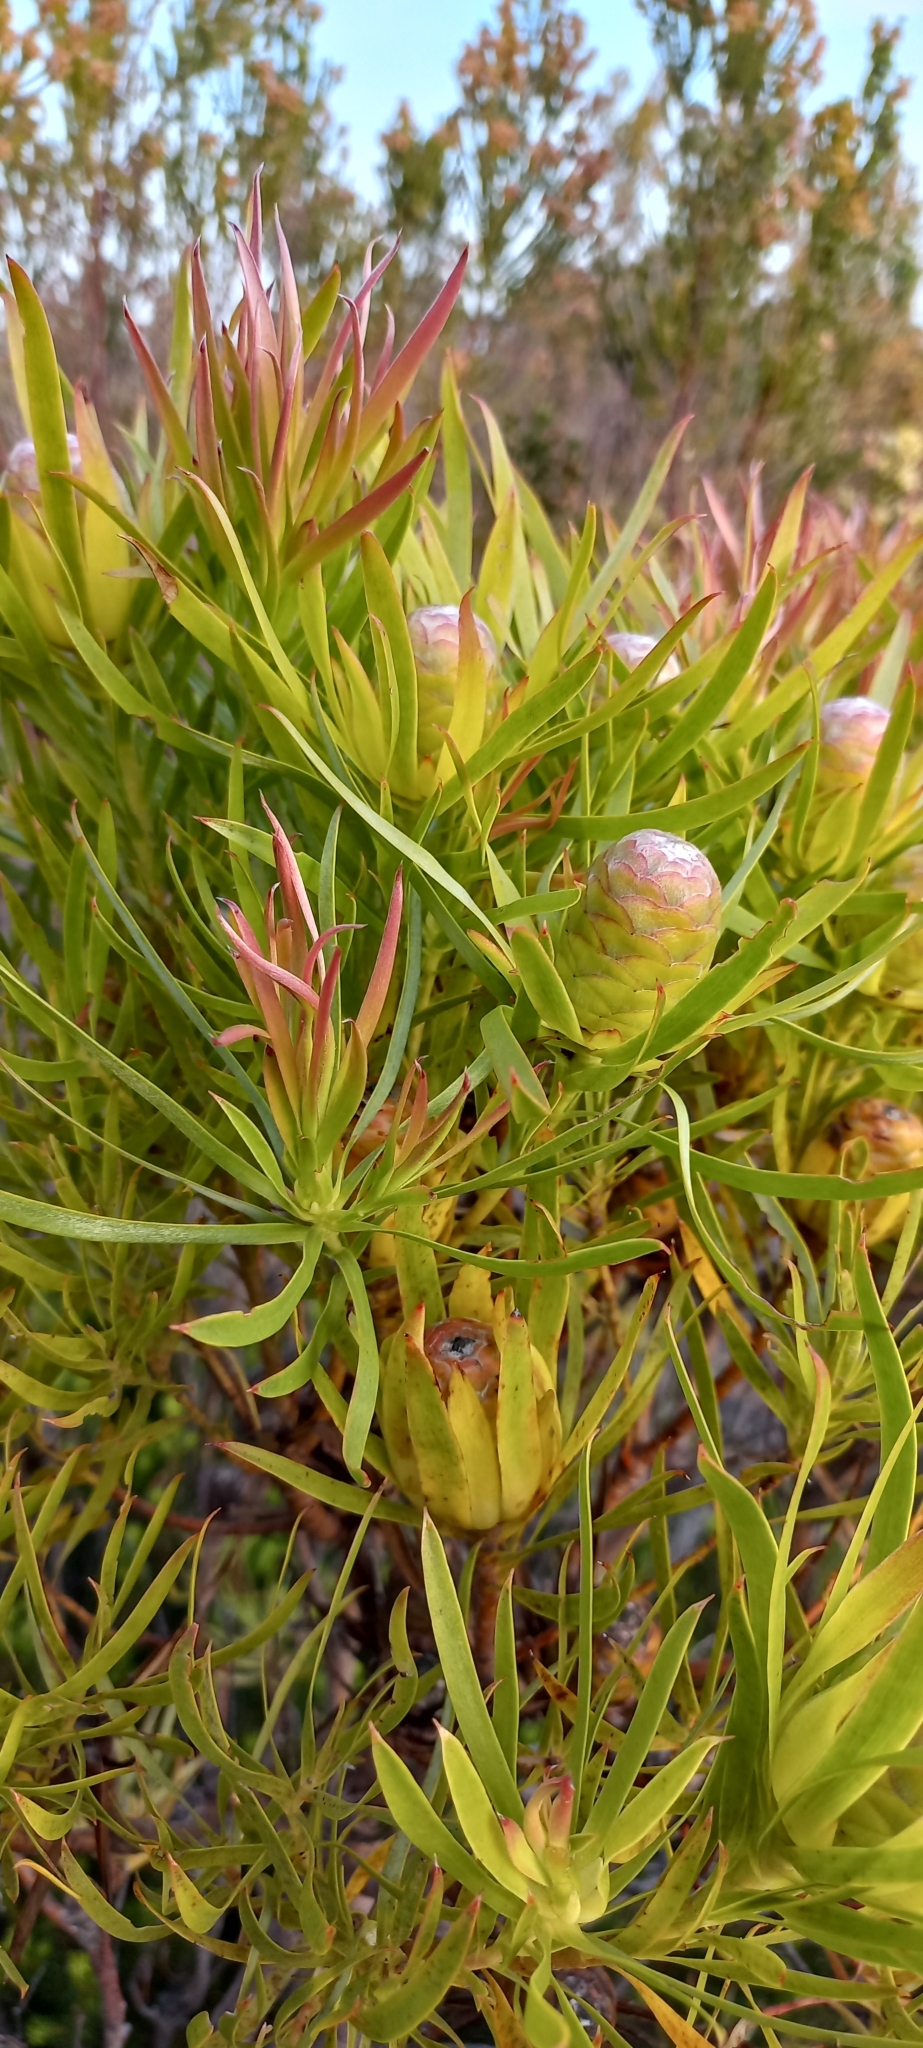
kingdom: Plantae
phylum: Tracheophyta
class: Magnoliopsida
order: Proteales
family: Proteaceae
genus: Leucadendron
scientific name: Leucadendron xanthoconus
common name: Sickle-leaf conebush
